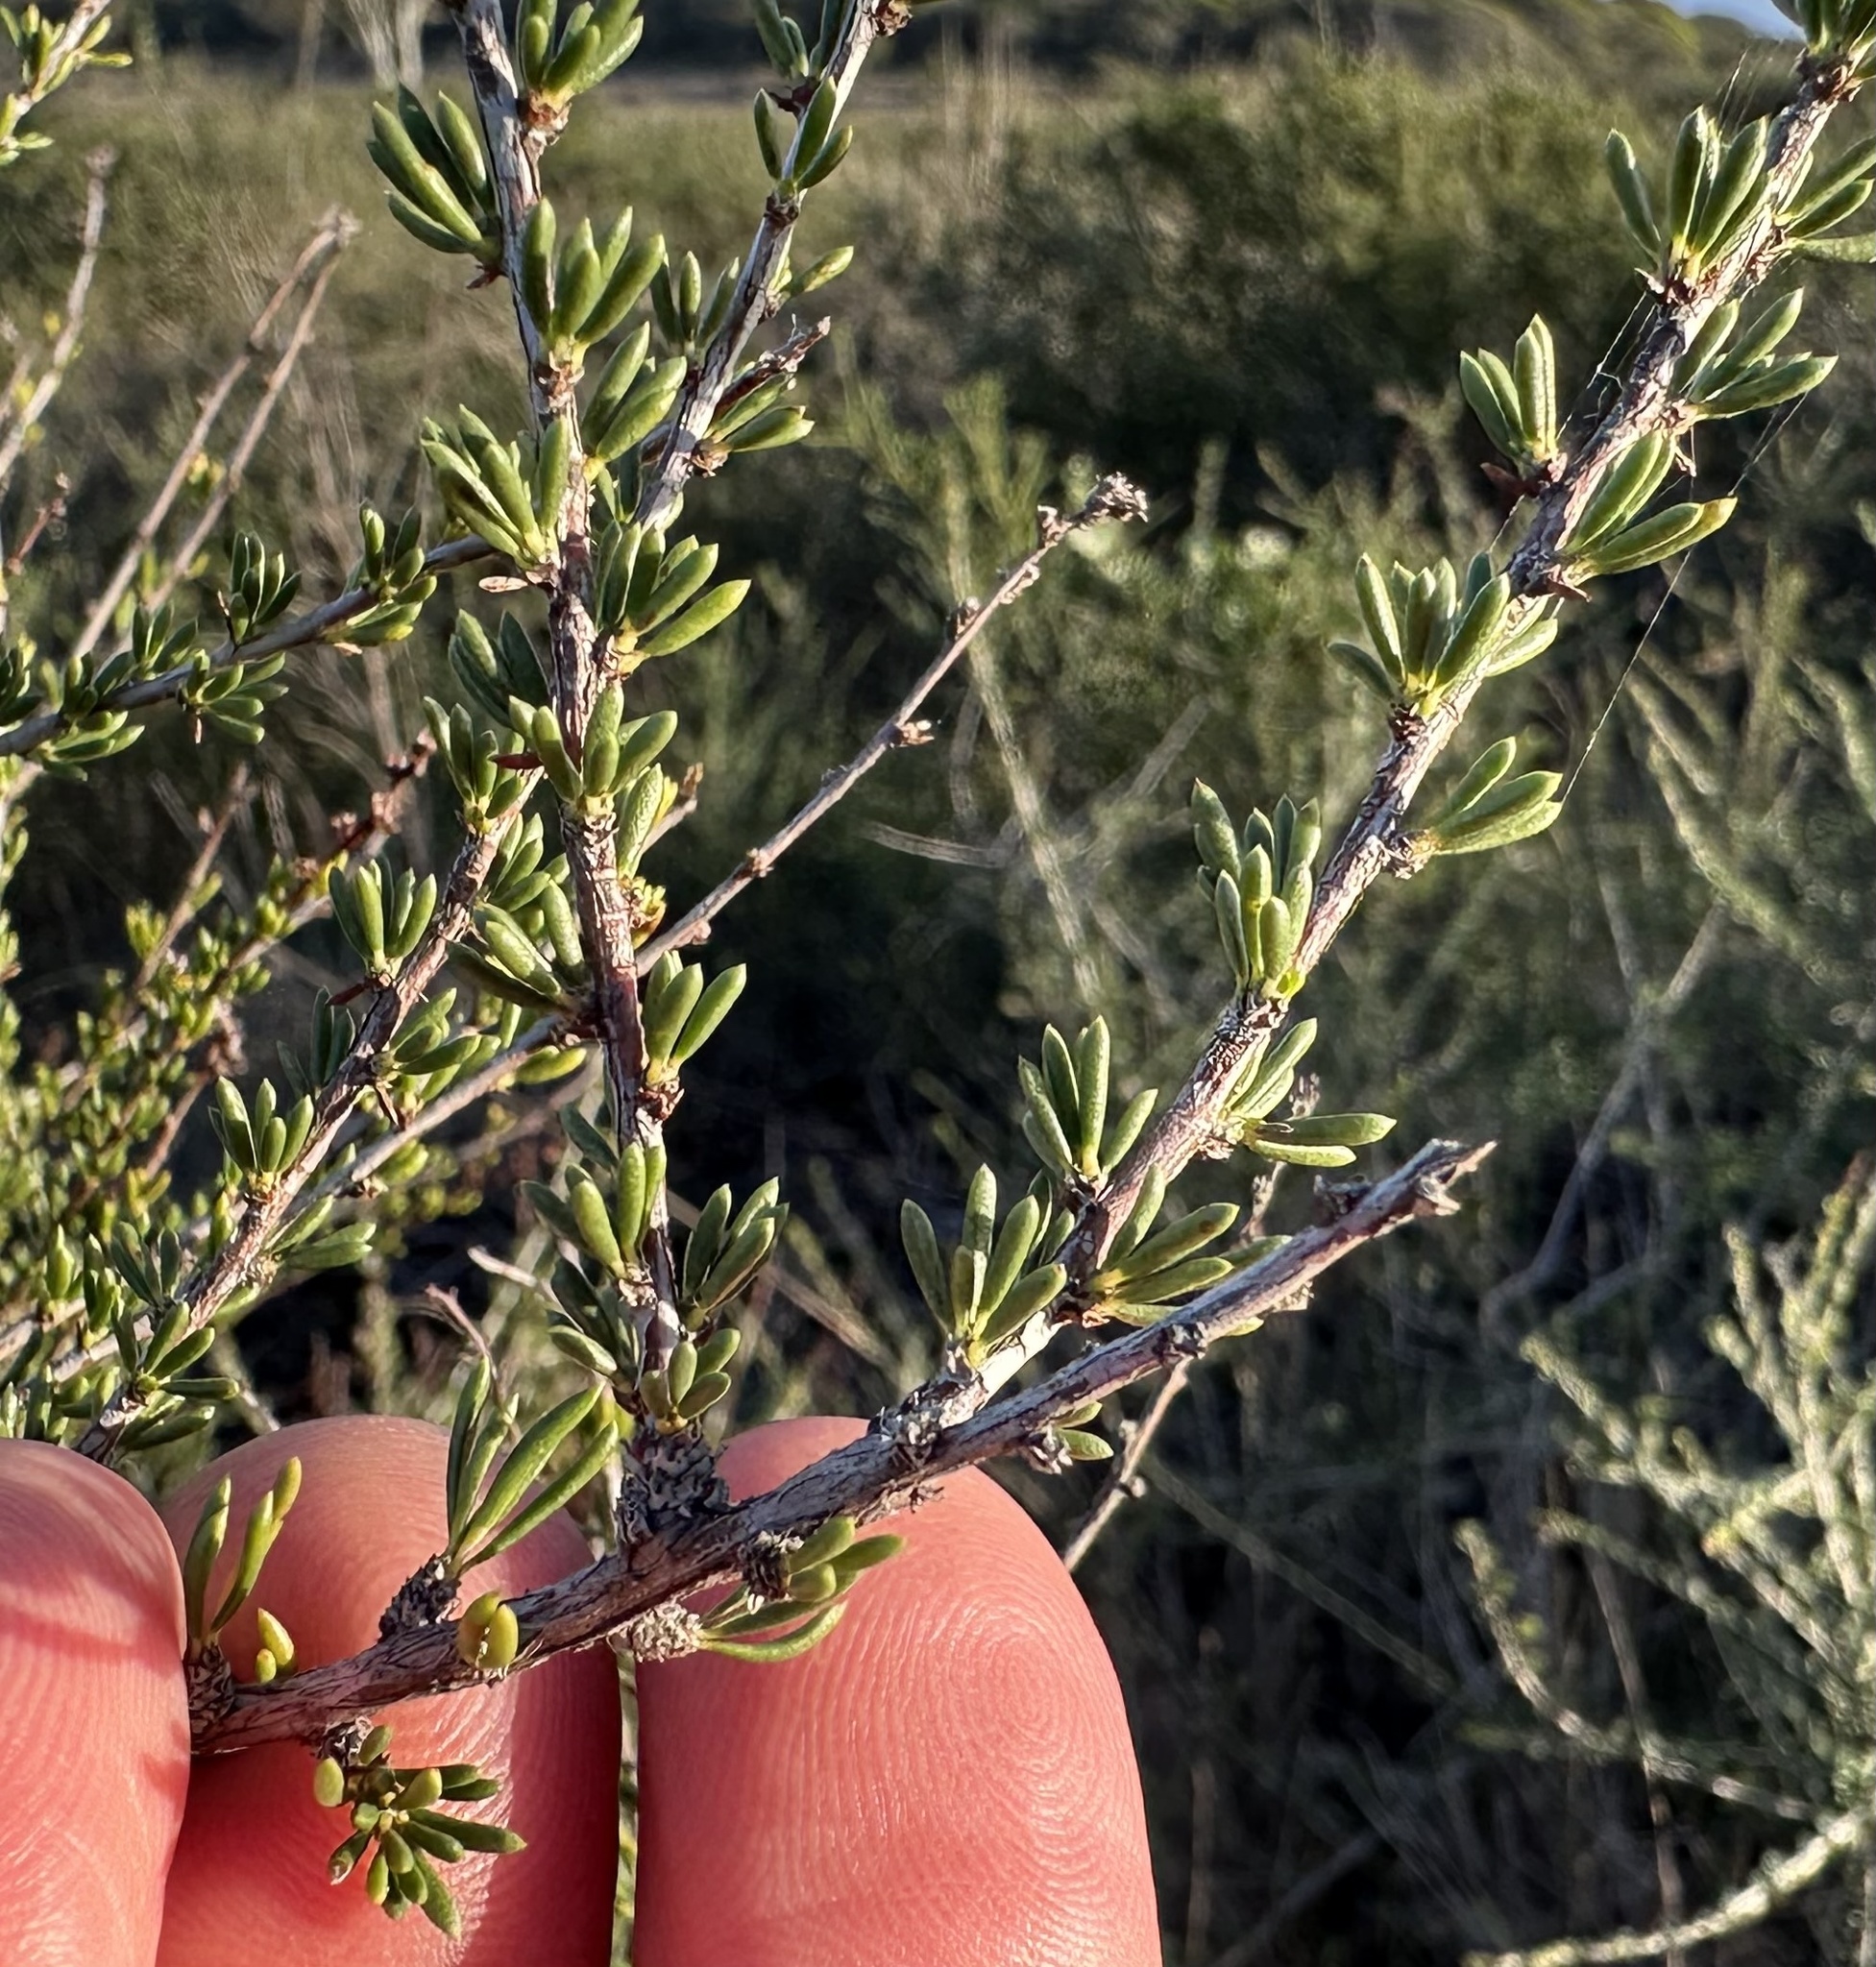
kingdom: Plantae
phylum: Tracheophyta
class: Magnoliopsida
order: Rosales
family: Rosaceae
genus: Adenostoma
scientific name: Adenostoma fasciculatum
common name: Chamise
